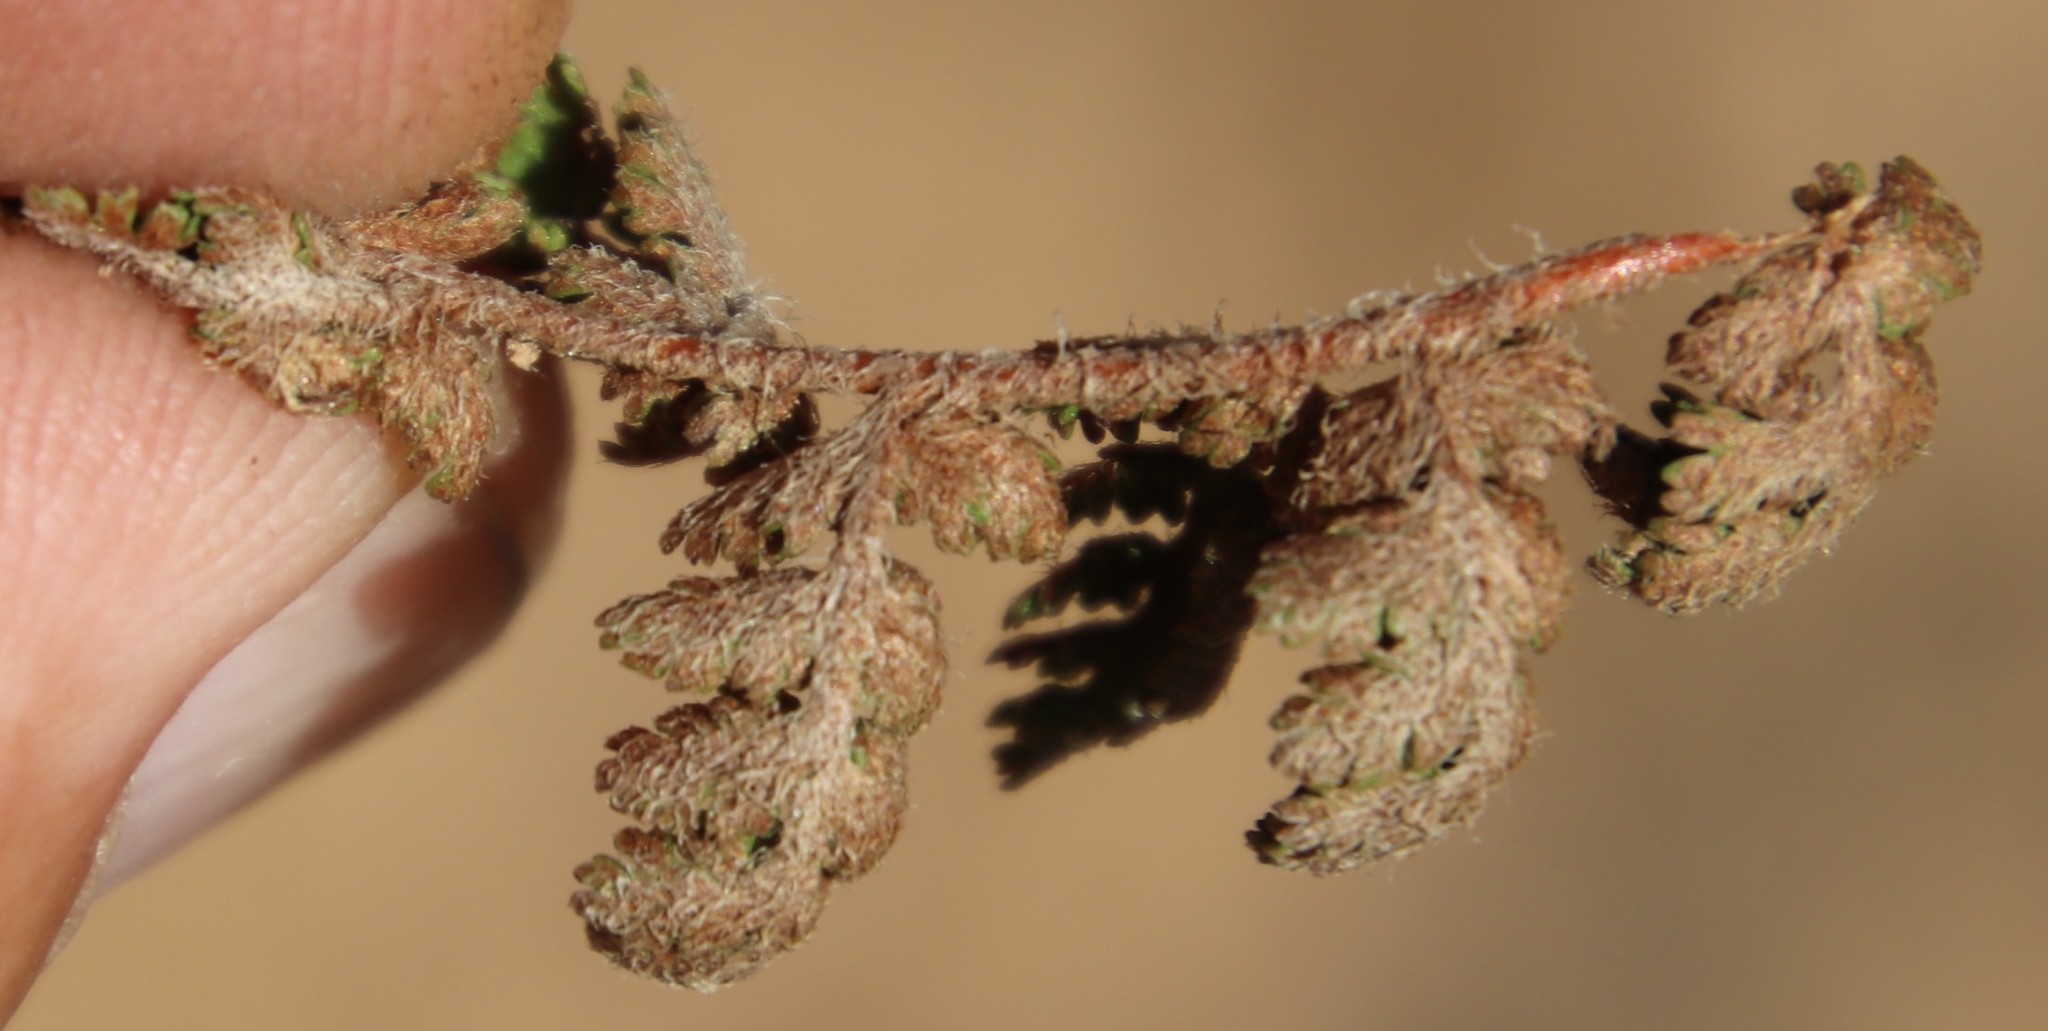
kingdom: Plantae
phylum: Tracheophyta
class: Polypodiopsida
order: Schizaeales
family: Anemiaceae
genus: Anemia
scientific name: Anemia caffrorum
